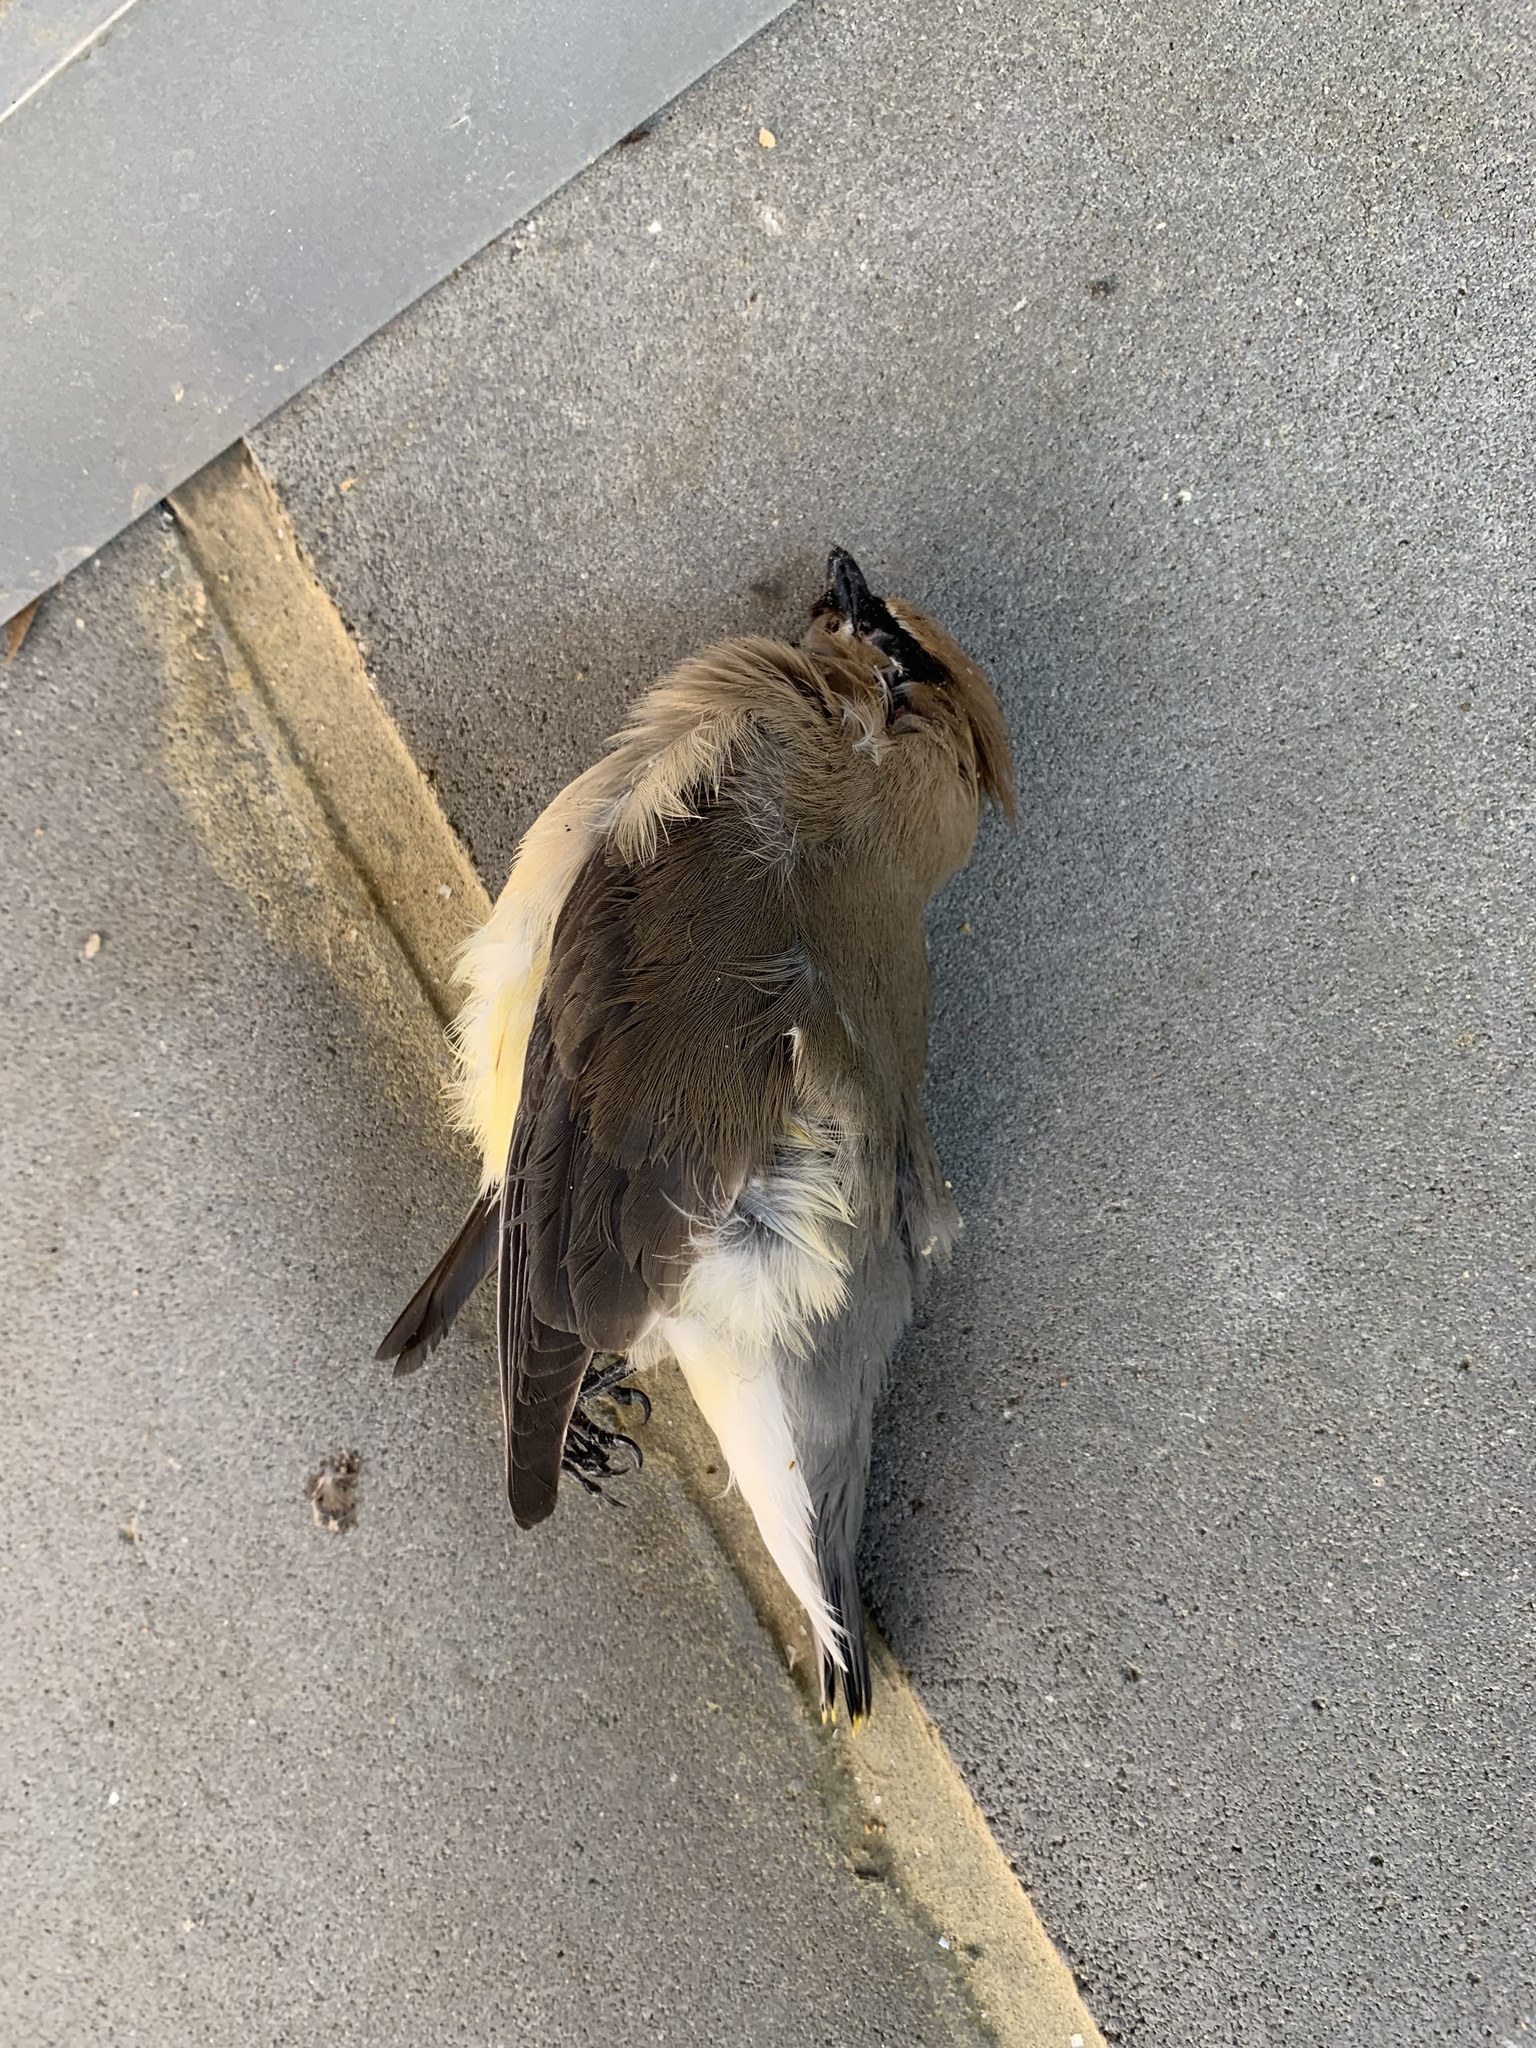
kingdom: Animalia
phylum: Chordata
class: Aves
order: Passeriformes
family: Bombycillidae
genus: Bombycilla
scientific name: Bombycilla cedrorum
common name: Cedar waxwing
